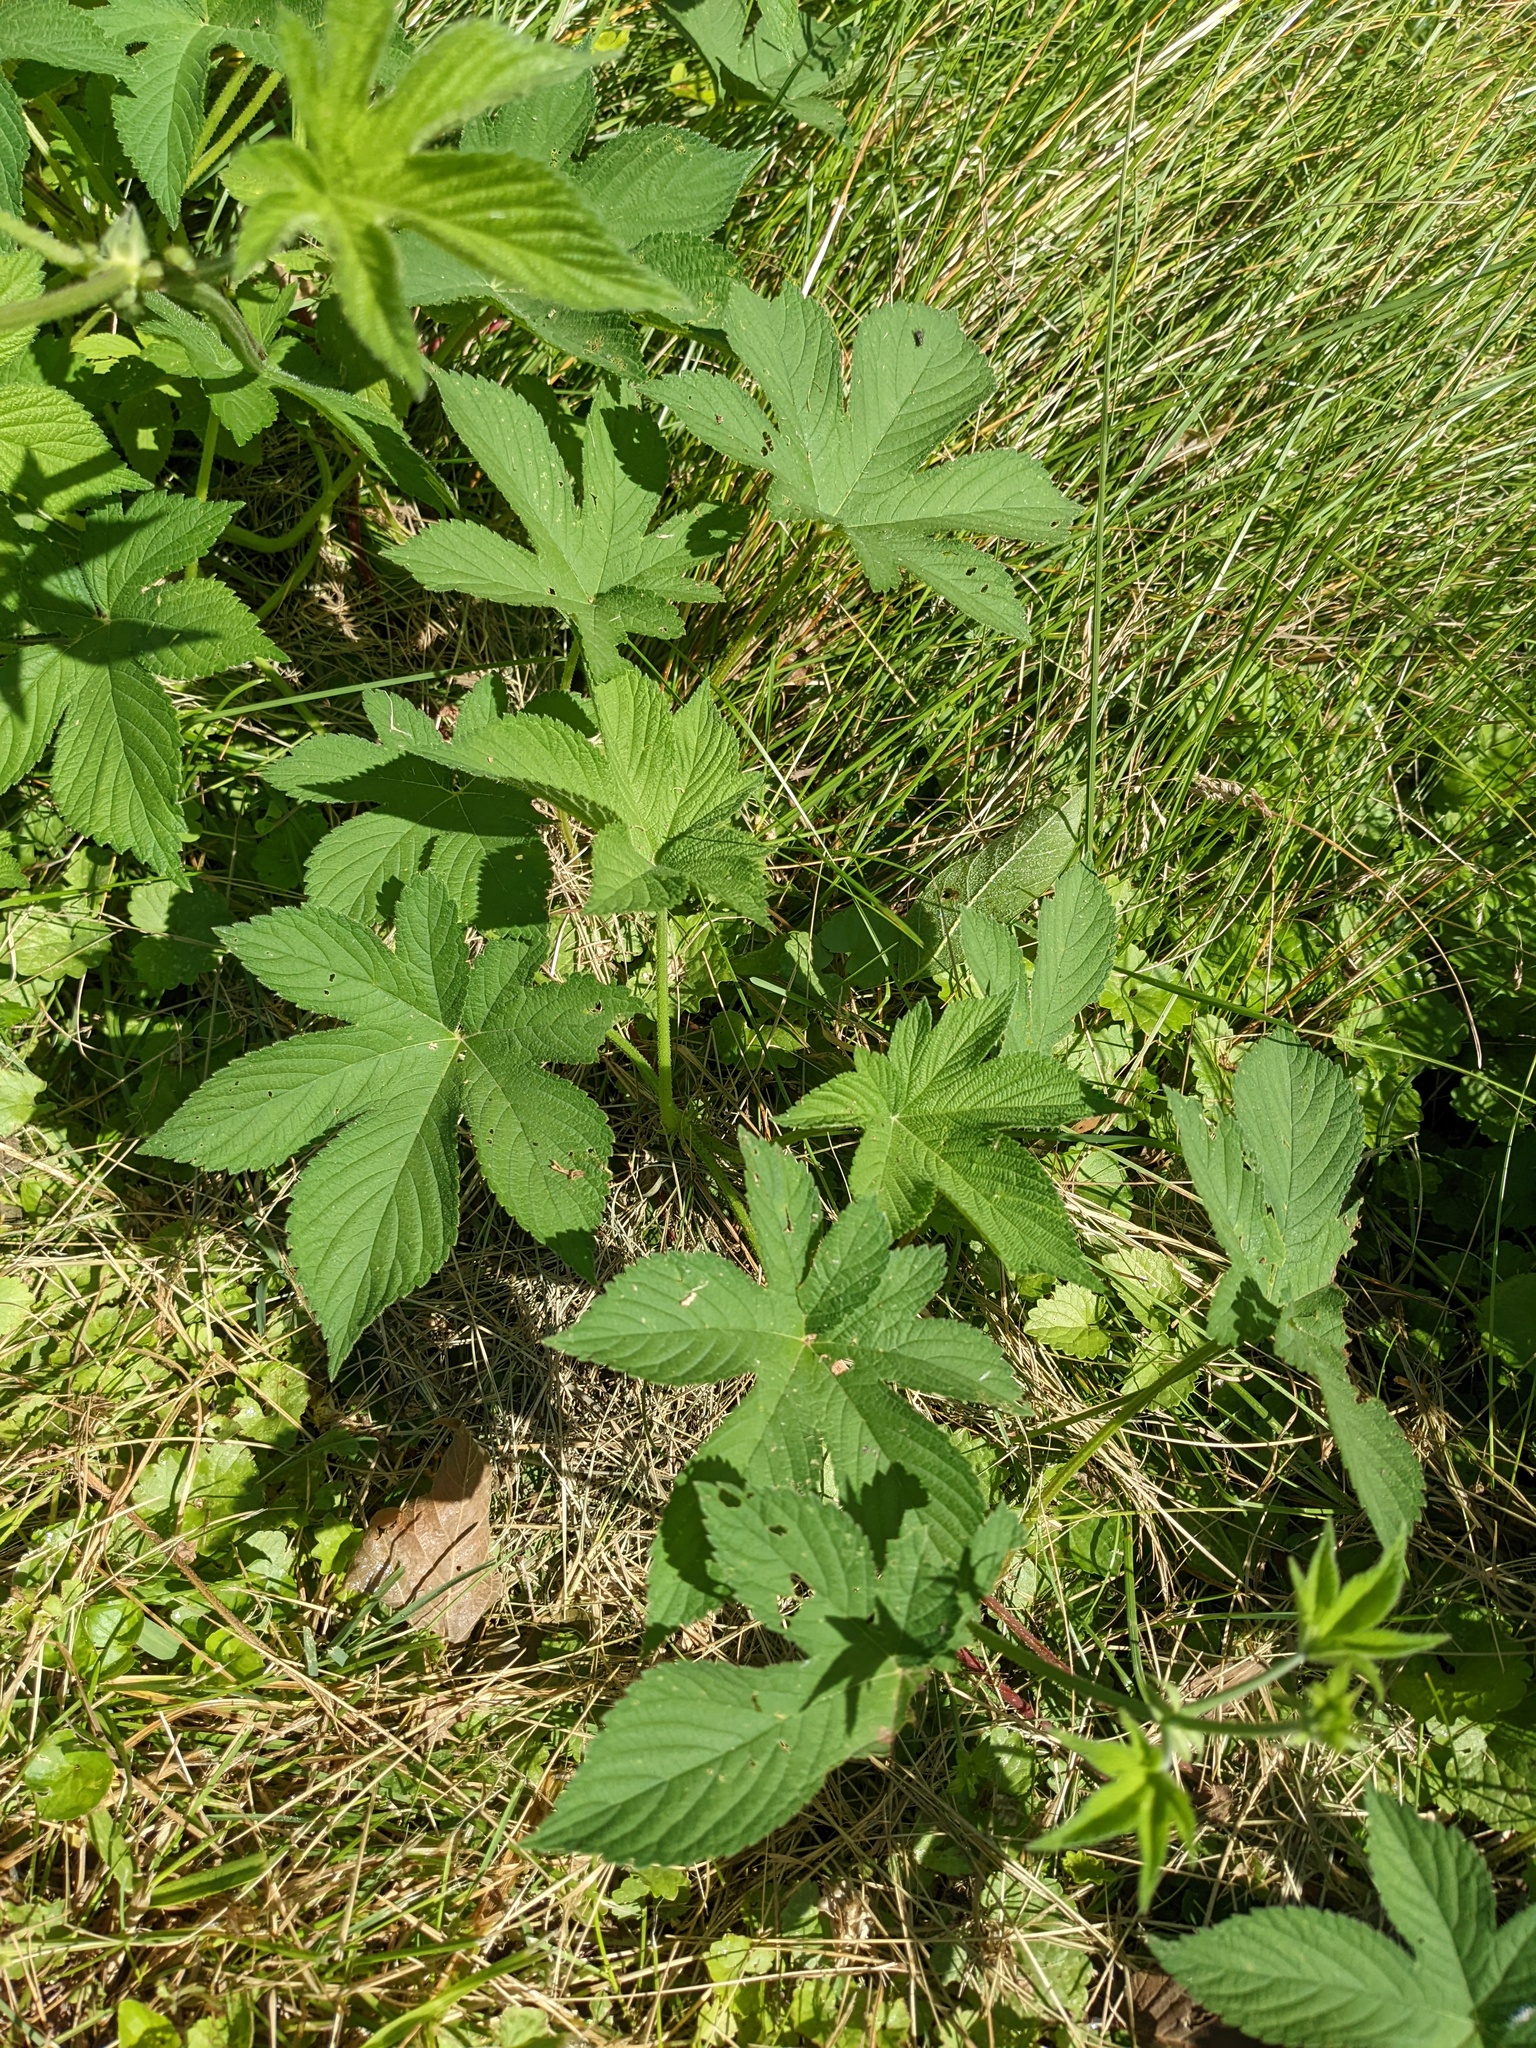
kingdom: Plantae
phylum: Tracheophyta
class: Magnoliopsida
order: Rosales
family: Cannabaceae
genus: Humulus
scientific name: Humulus scandens
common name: Japanese hop
